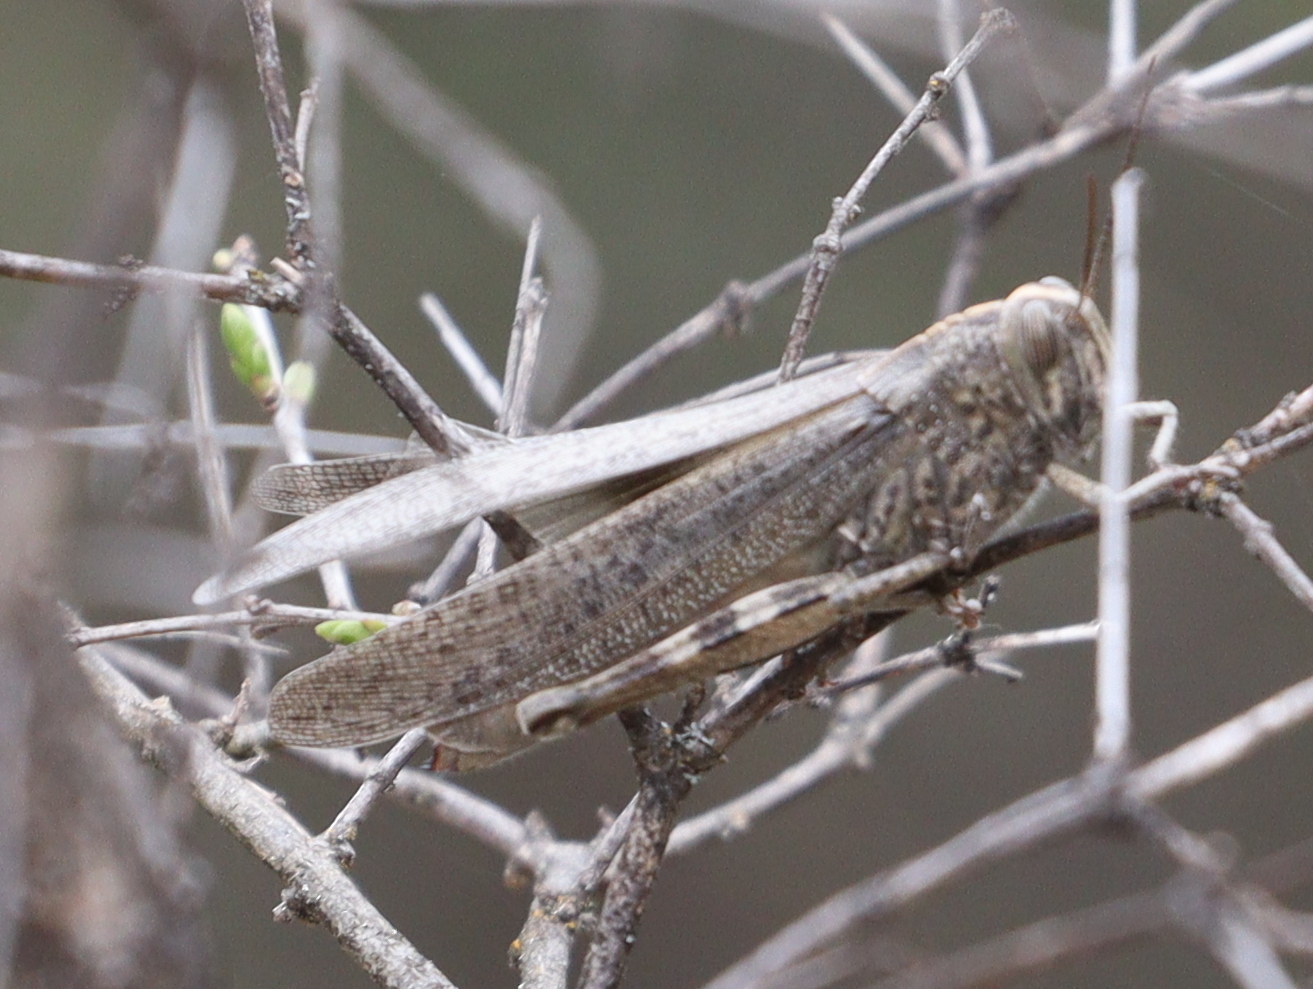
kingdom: Animalia
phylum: Arthropoda
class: Insecta
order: Orthoptera
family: Acrididae
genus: Anacridium
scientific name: Anacridium aegyptium
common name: Egyptian grasshopper
